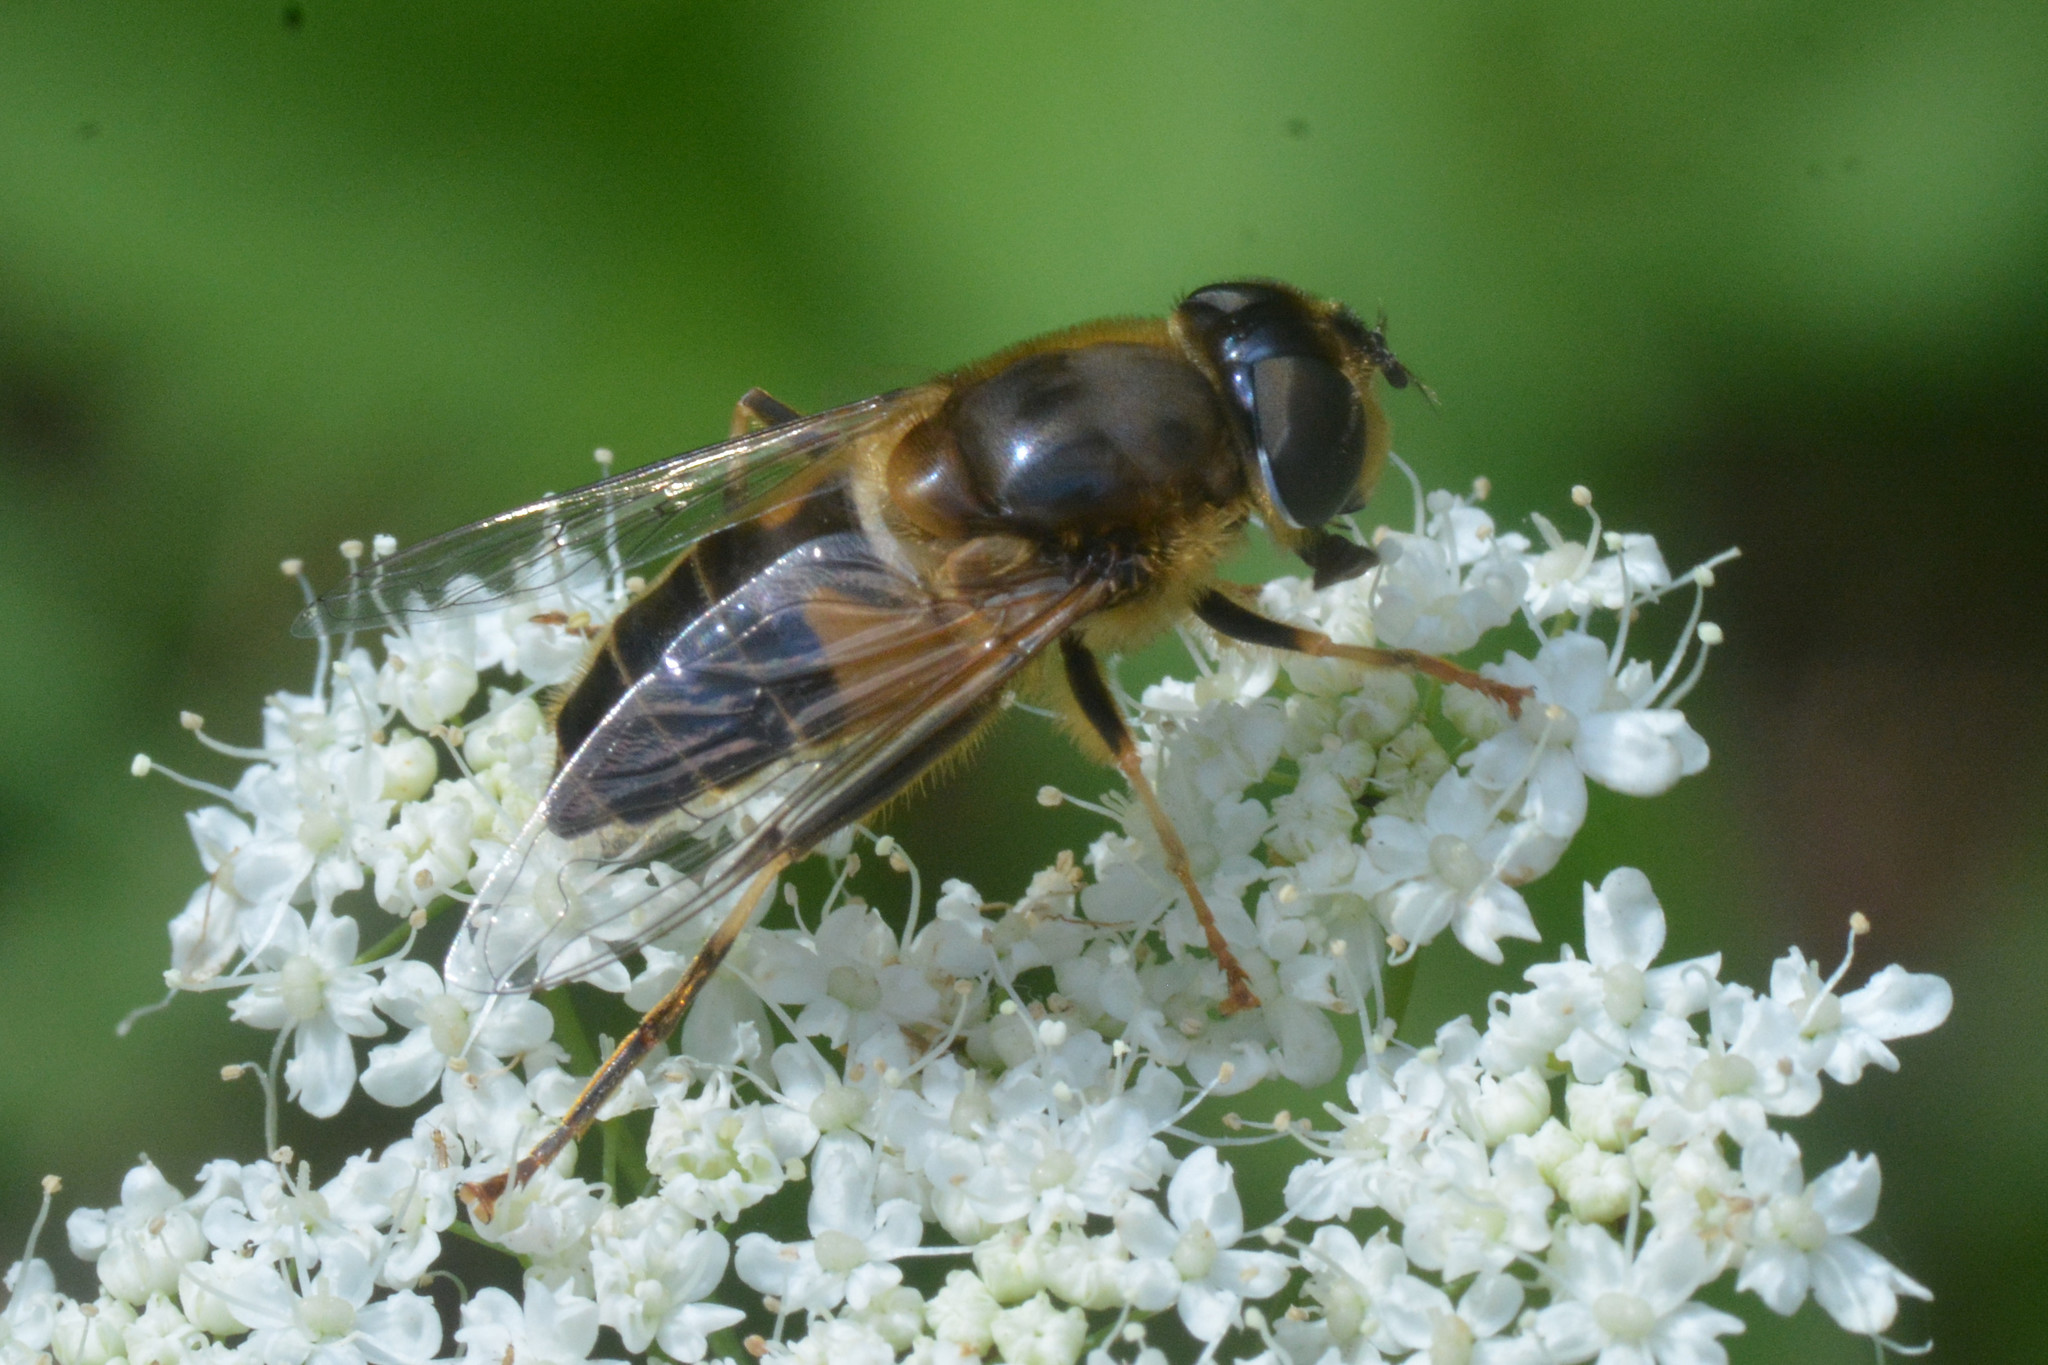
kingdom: Animalia
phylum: Arthropoda
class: Insecta
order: Diptera
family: Syrphidae
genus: Eristalis
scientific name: Eristalis pertinax
